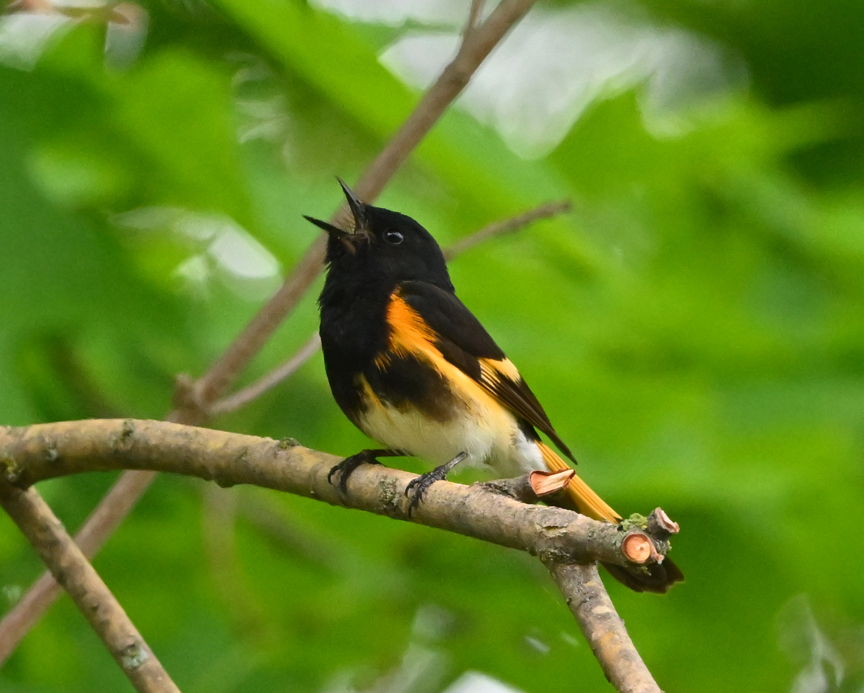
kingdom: Animalia
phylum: Chordata
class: Aves
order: Passeriformes
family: Parulidae
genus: Setophaga
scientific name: Setophaga ruticilla
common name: American redstart
